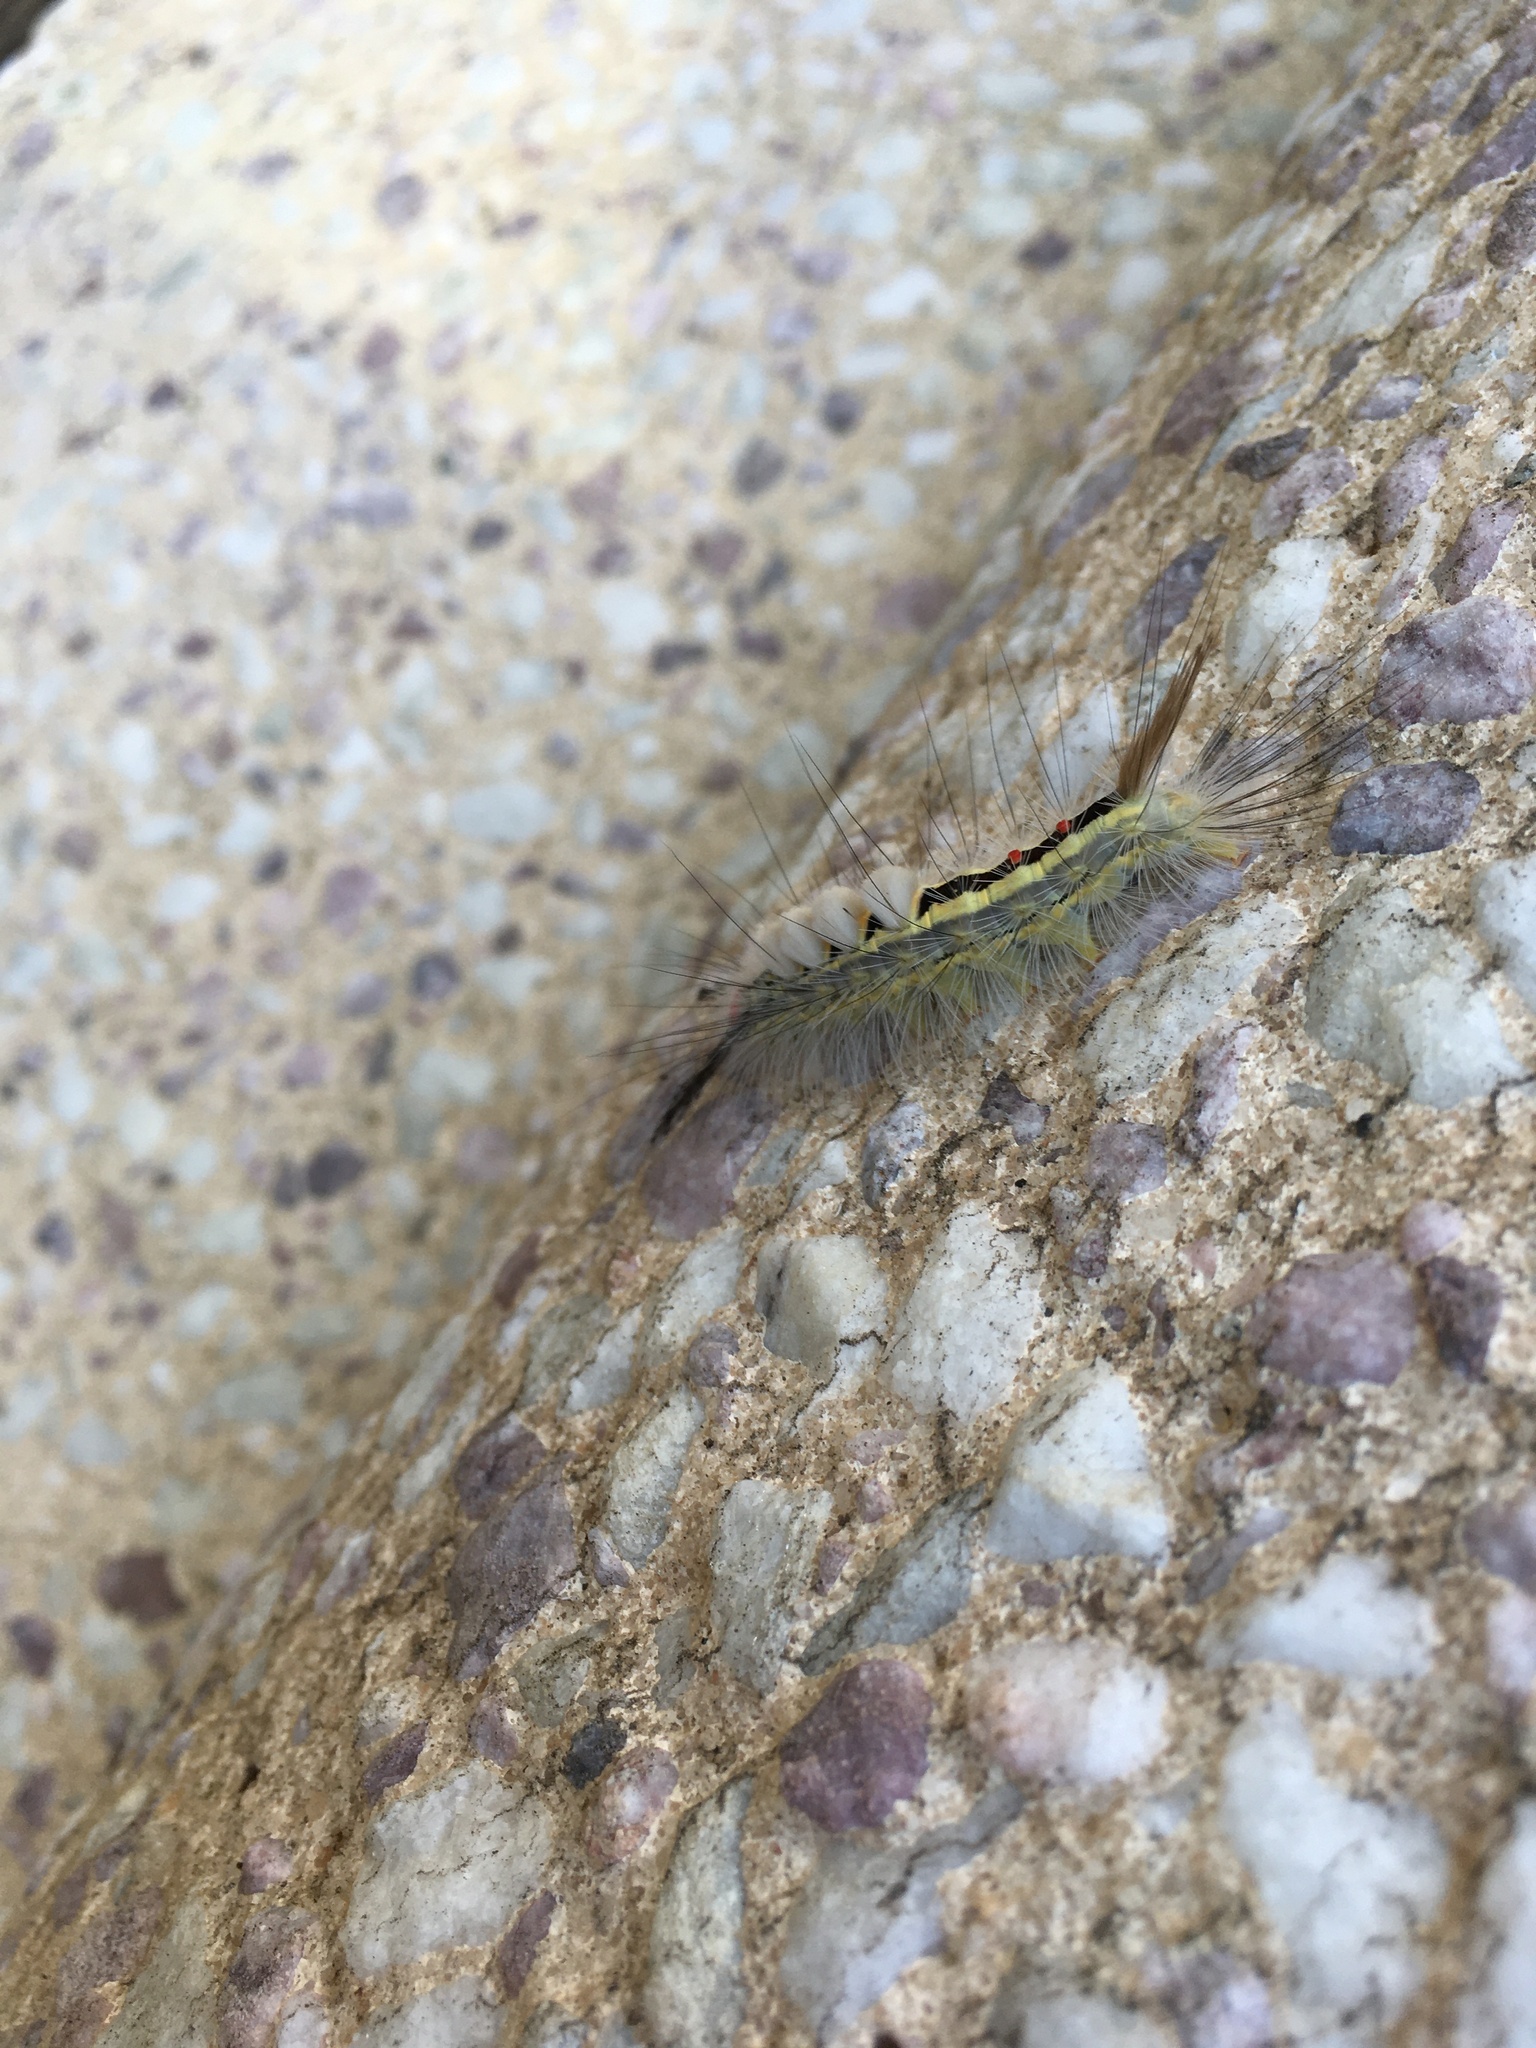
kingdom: Animalia
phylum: Arthropoda
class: Insecta
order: Lepidoptera
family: Erebidae
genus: Orgyia
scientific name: Orgyia leucostigma
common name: White-marked tussock moth
